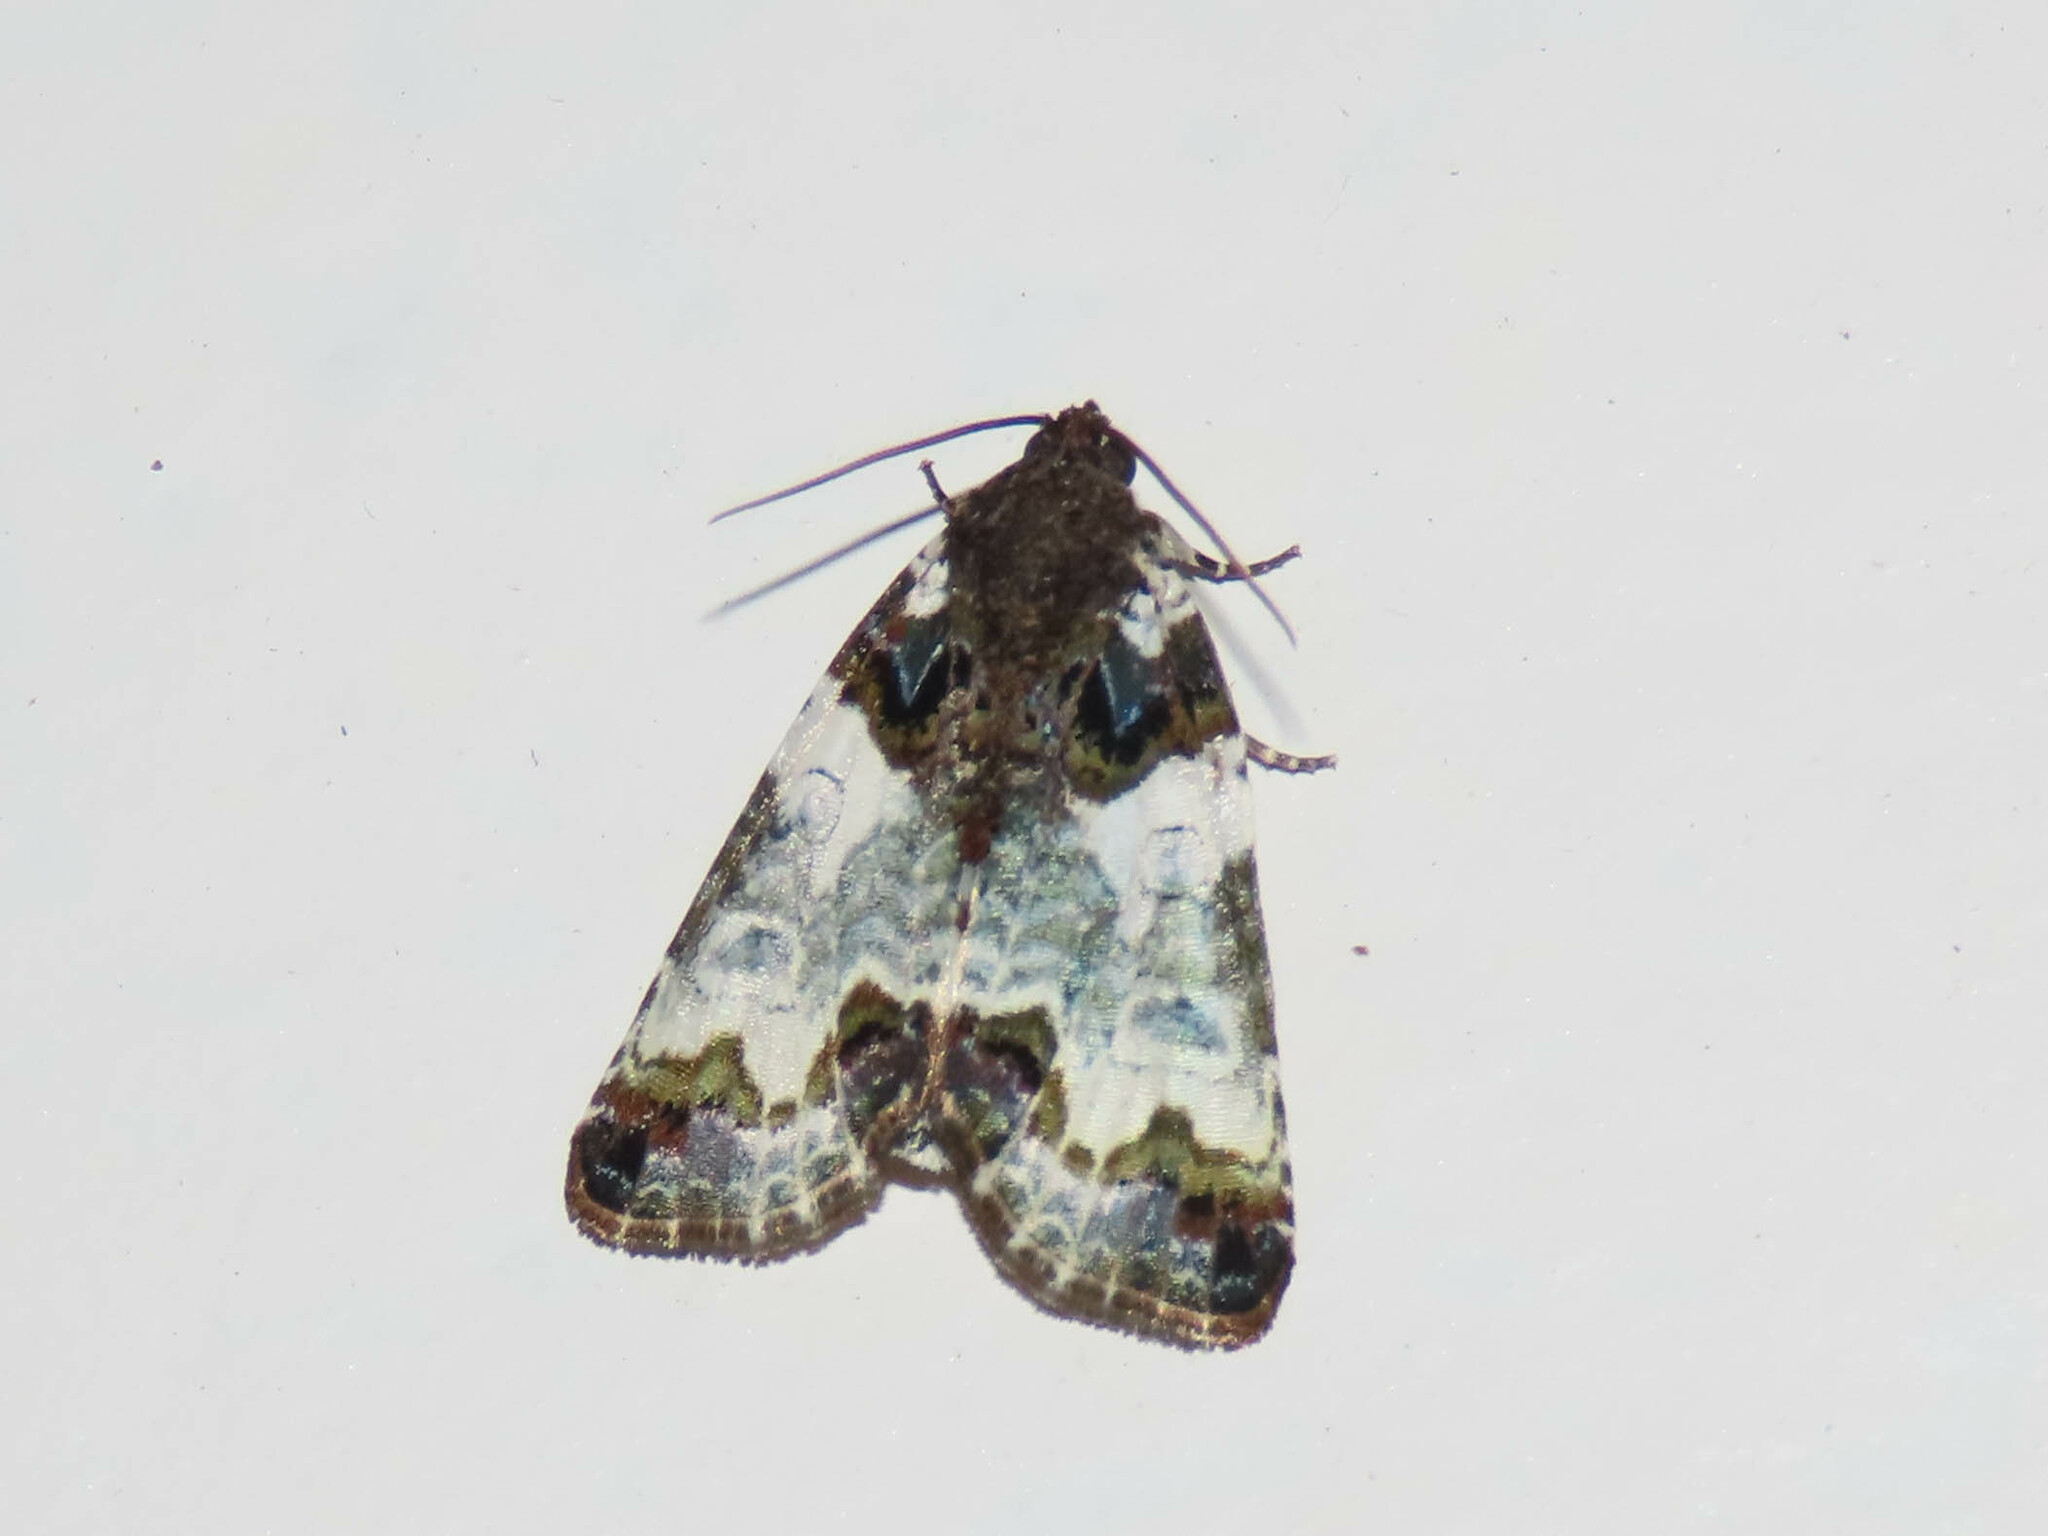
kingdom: Animalia
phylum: Arthropoda
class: Insecta
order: Lepidoptera
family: Noctuidae
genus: Cerma
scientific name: Cerma cerintha
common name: Tufted bird-dropping moth
